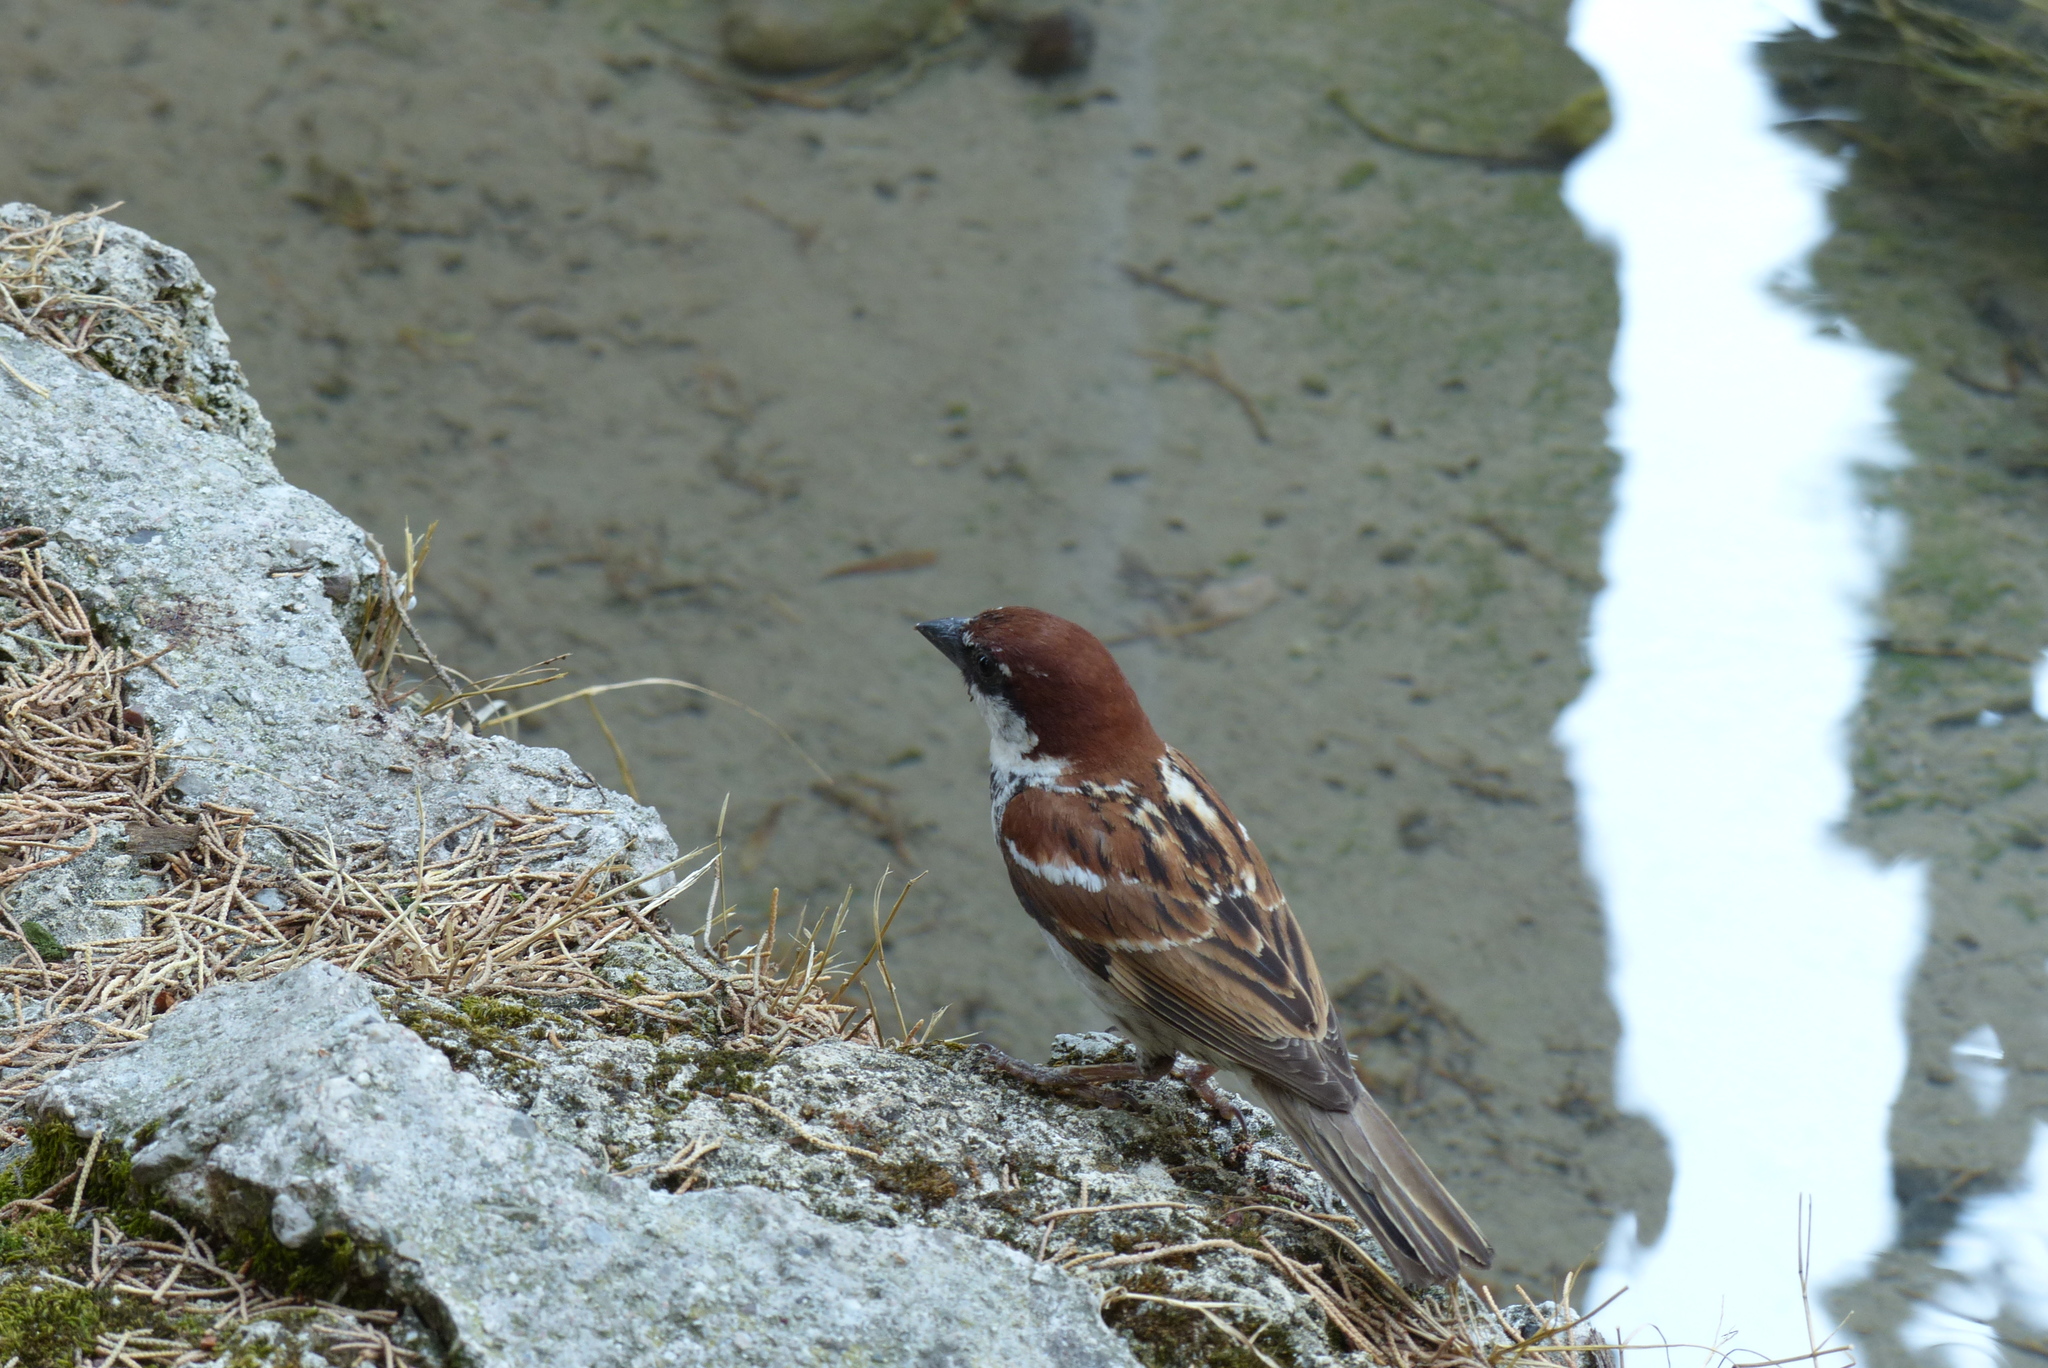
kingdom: Animalia
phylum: Chordata
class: Aves
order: Passeriformes
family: Passeridae
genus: Passer
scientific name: Passer italiae
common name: Italian sparrow
